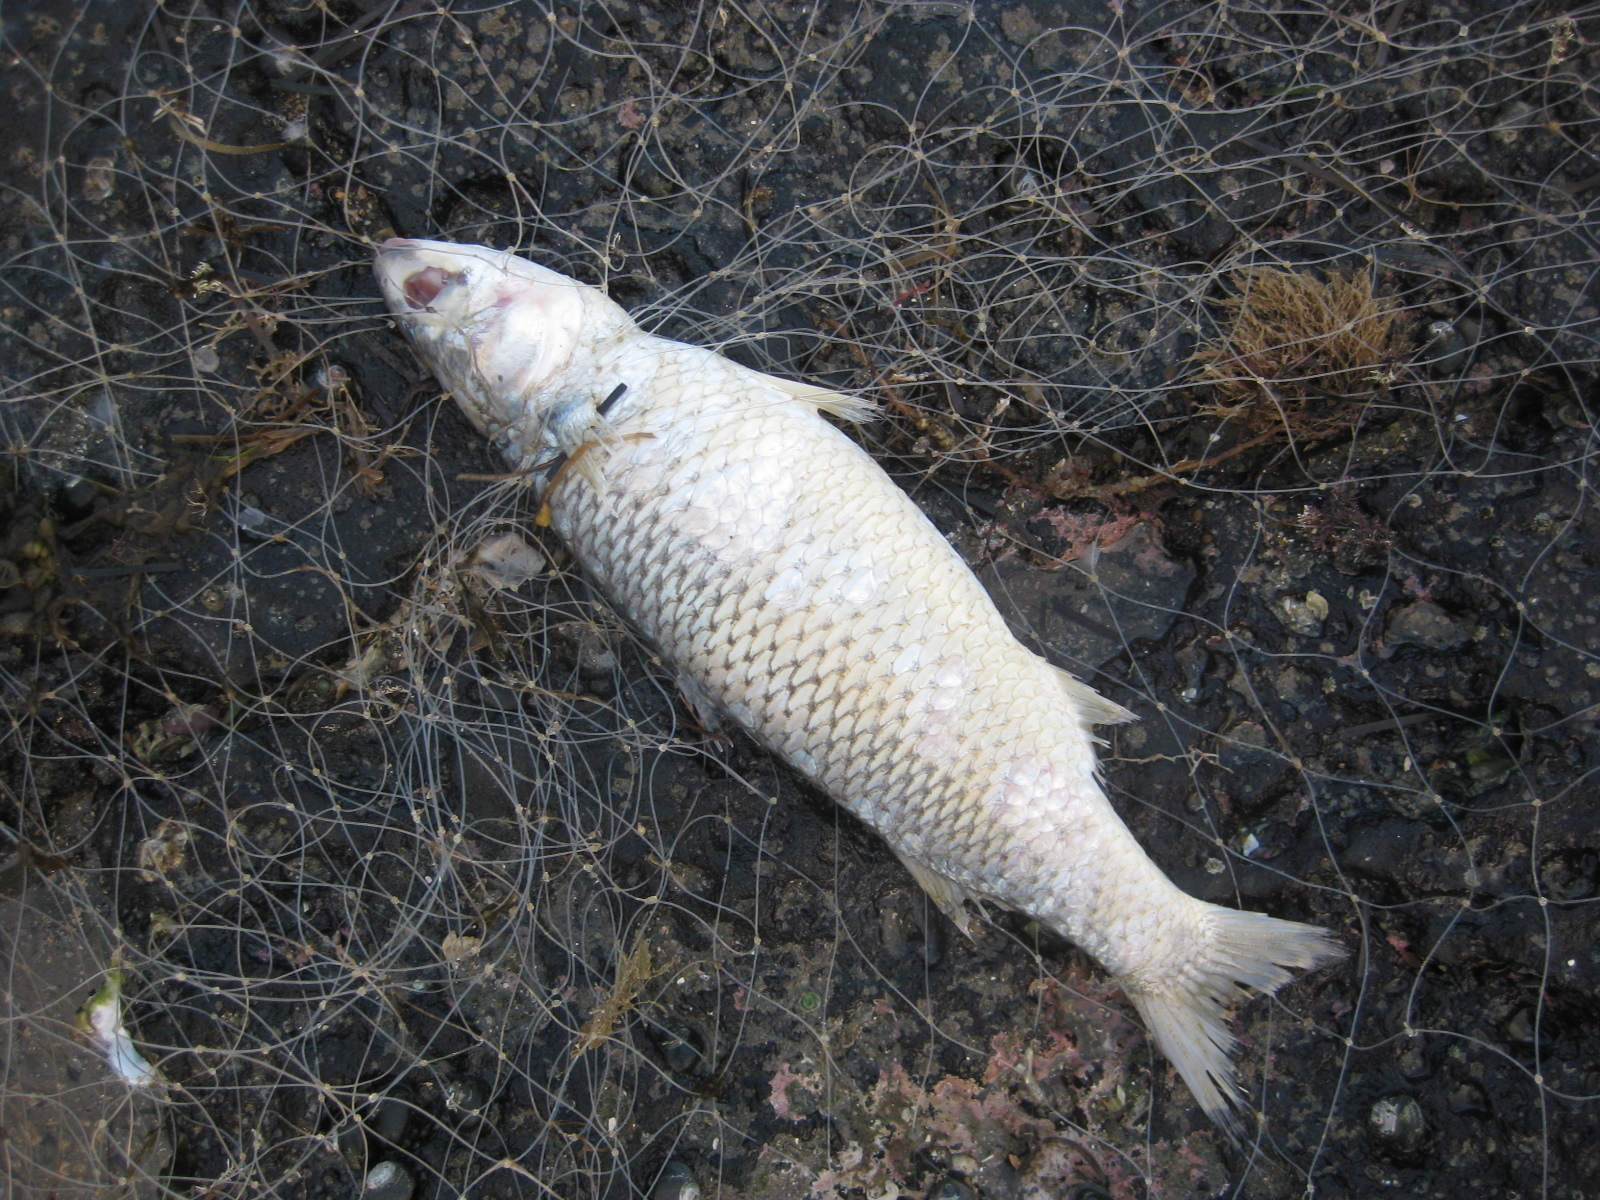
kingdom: Animalia
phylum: Chordata
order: Mugiliformes
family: Mugilidae
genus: Mugil
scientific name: Mugil cephalus
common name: Grey mullet
